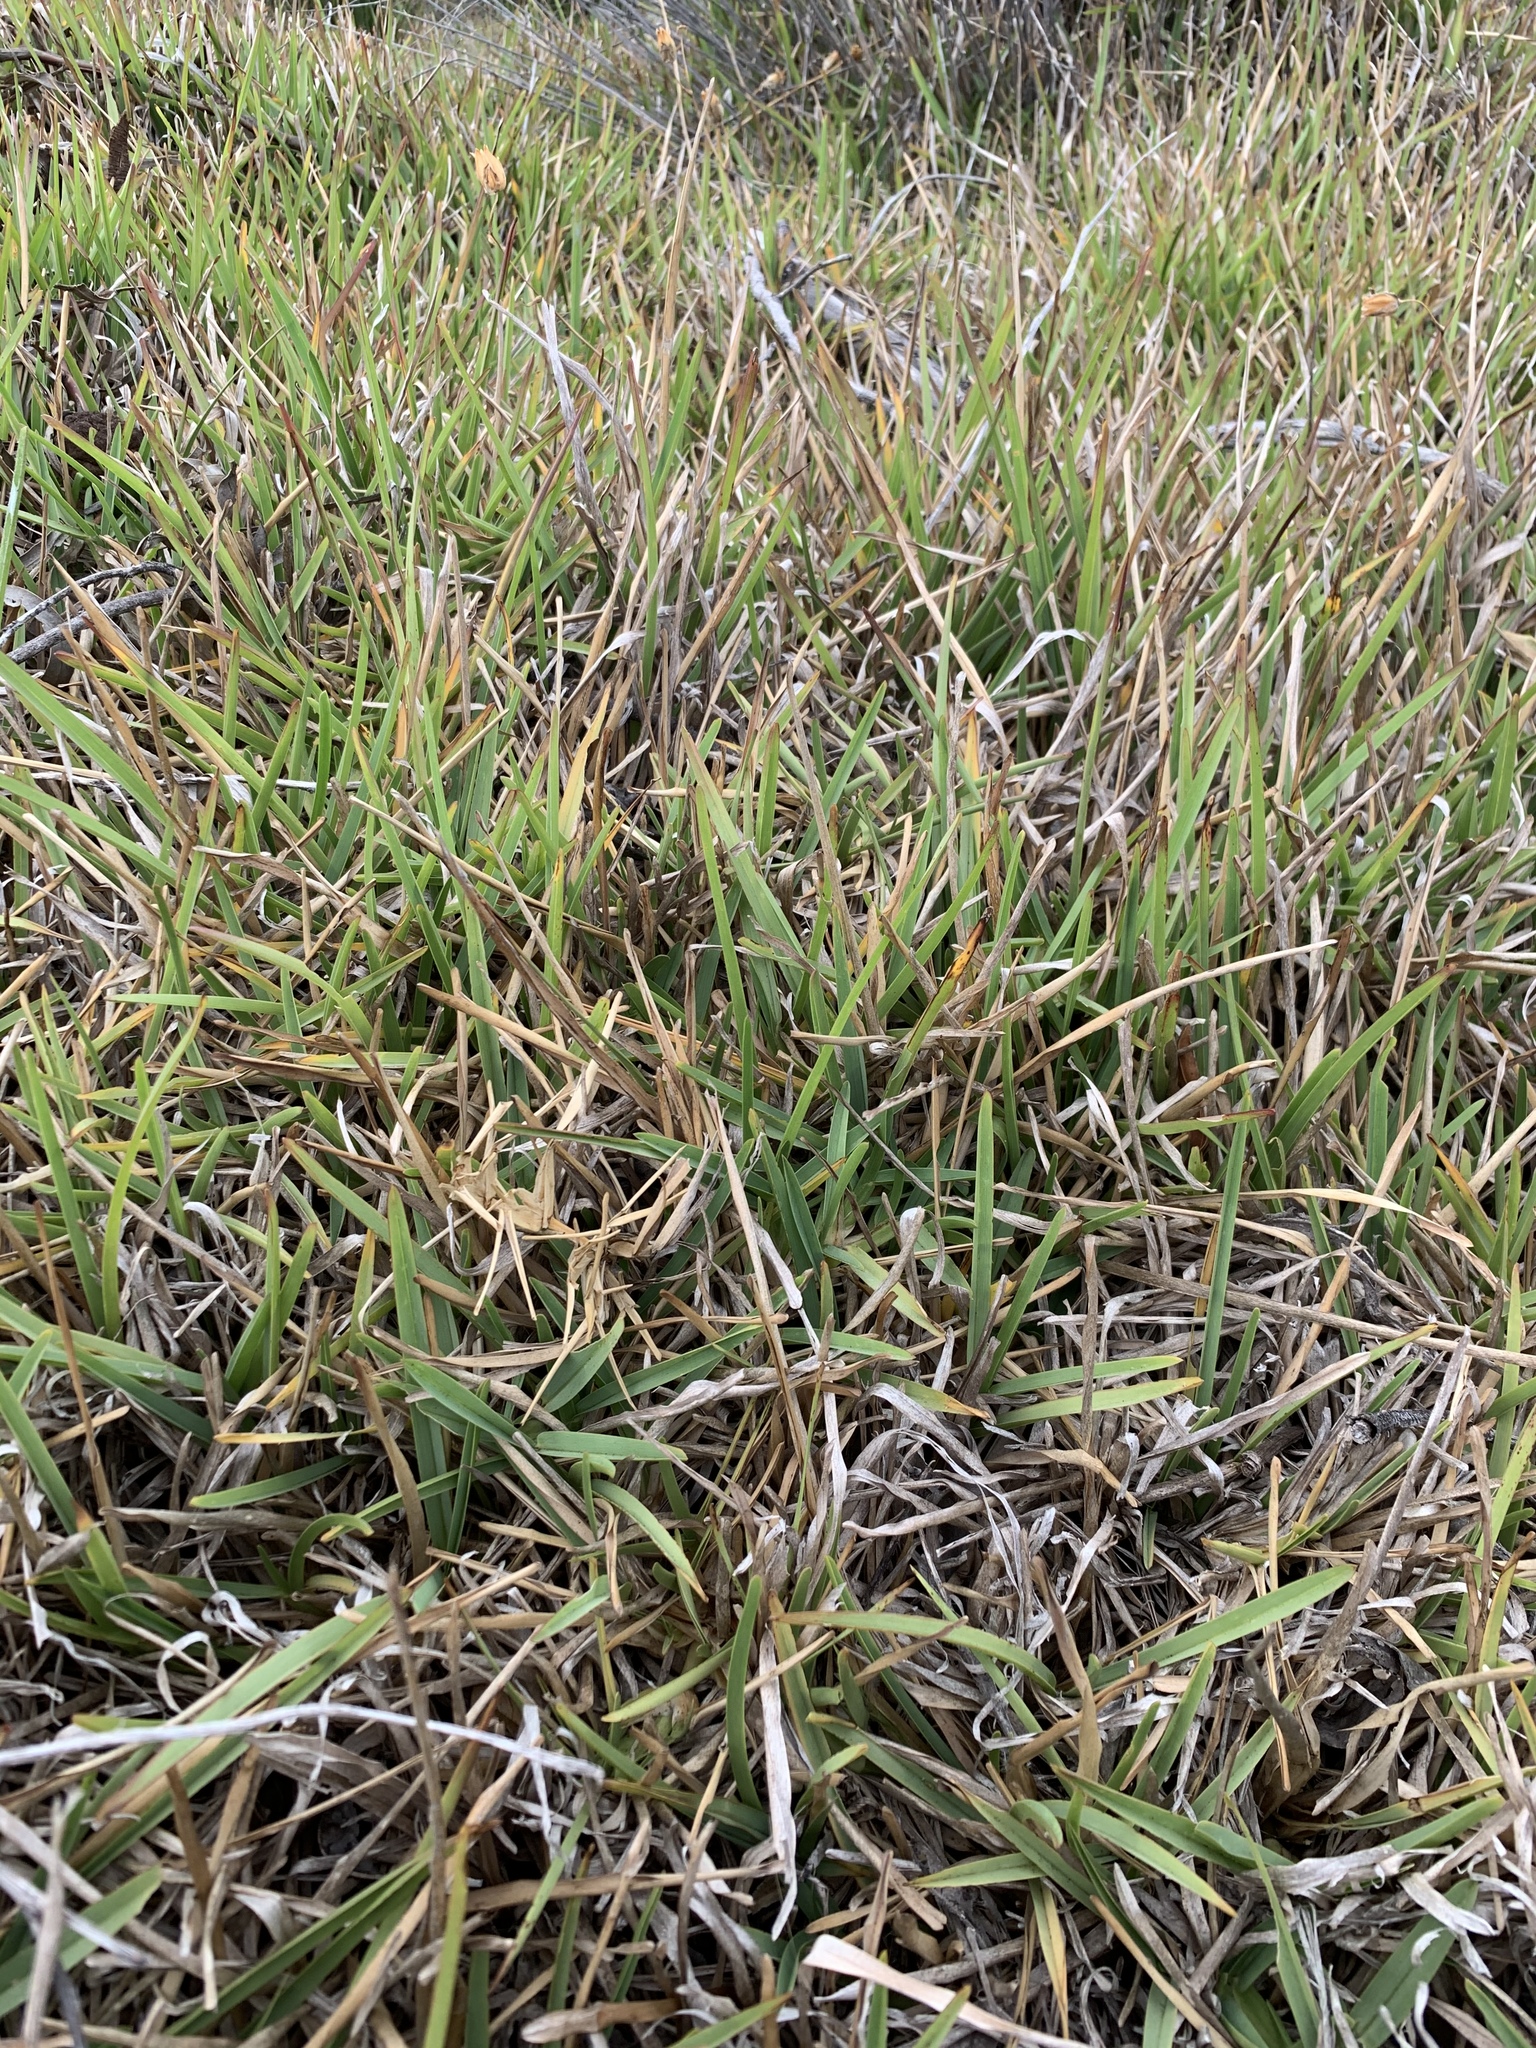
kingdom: Plantae
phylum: Tracheophyta
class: Liliopsida
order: Poales
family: Poaceae
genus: Stenotaphrum
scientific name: Stenotaphrum secundatum
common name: St. augustine grass
